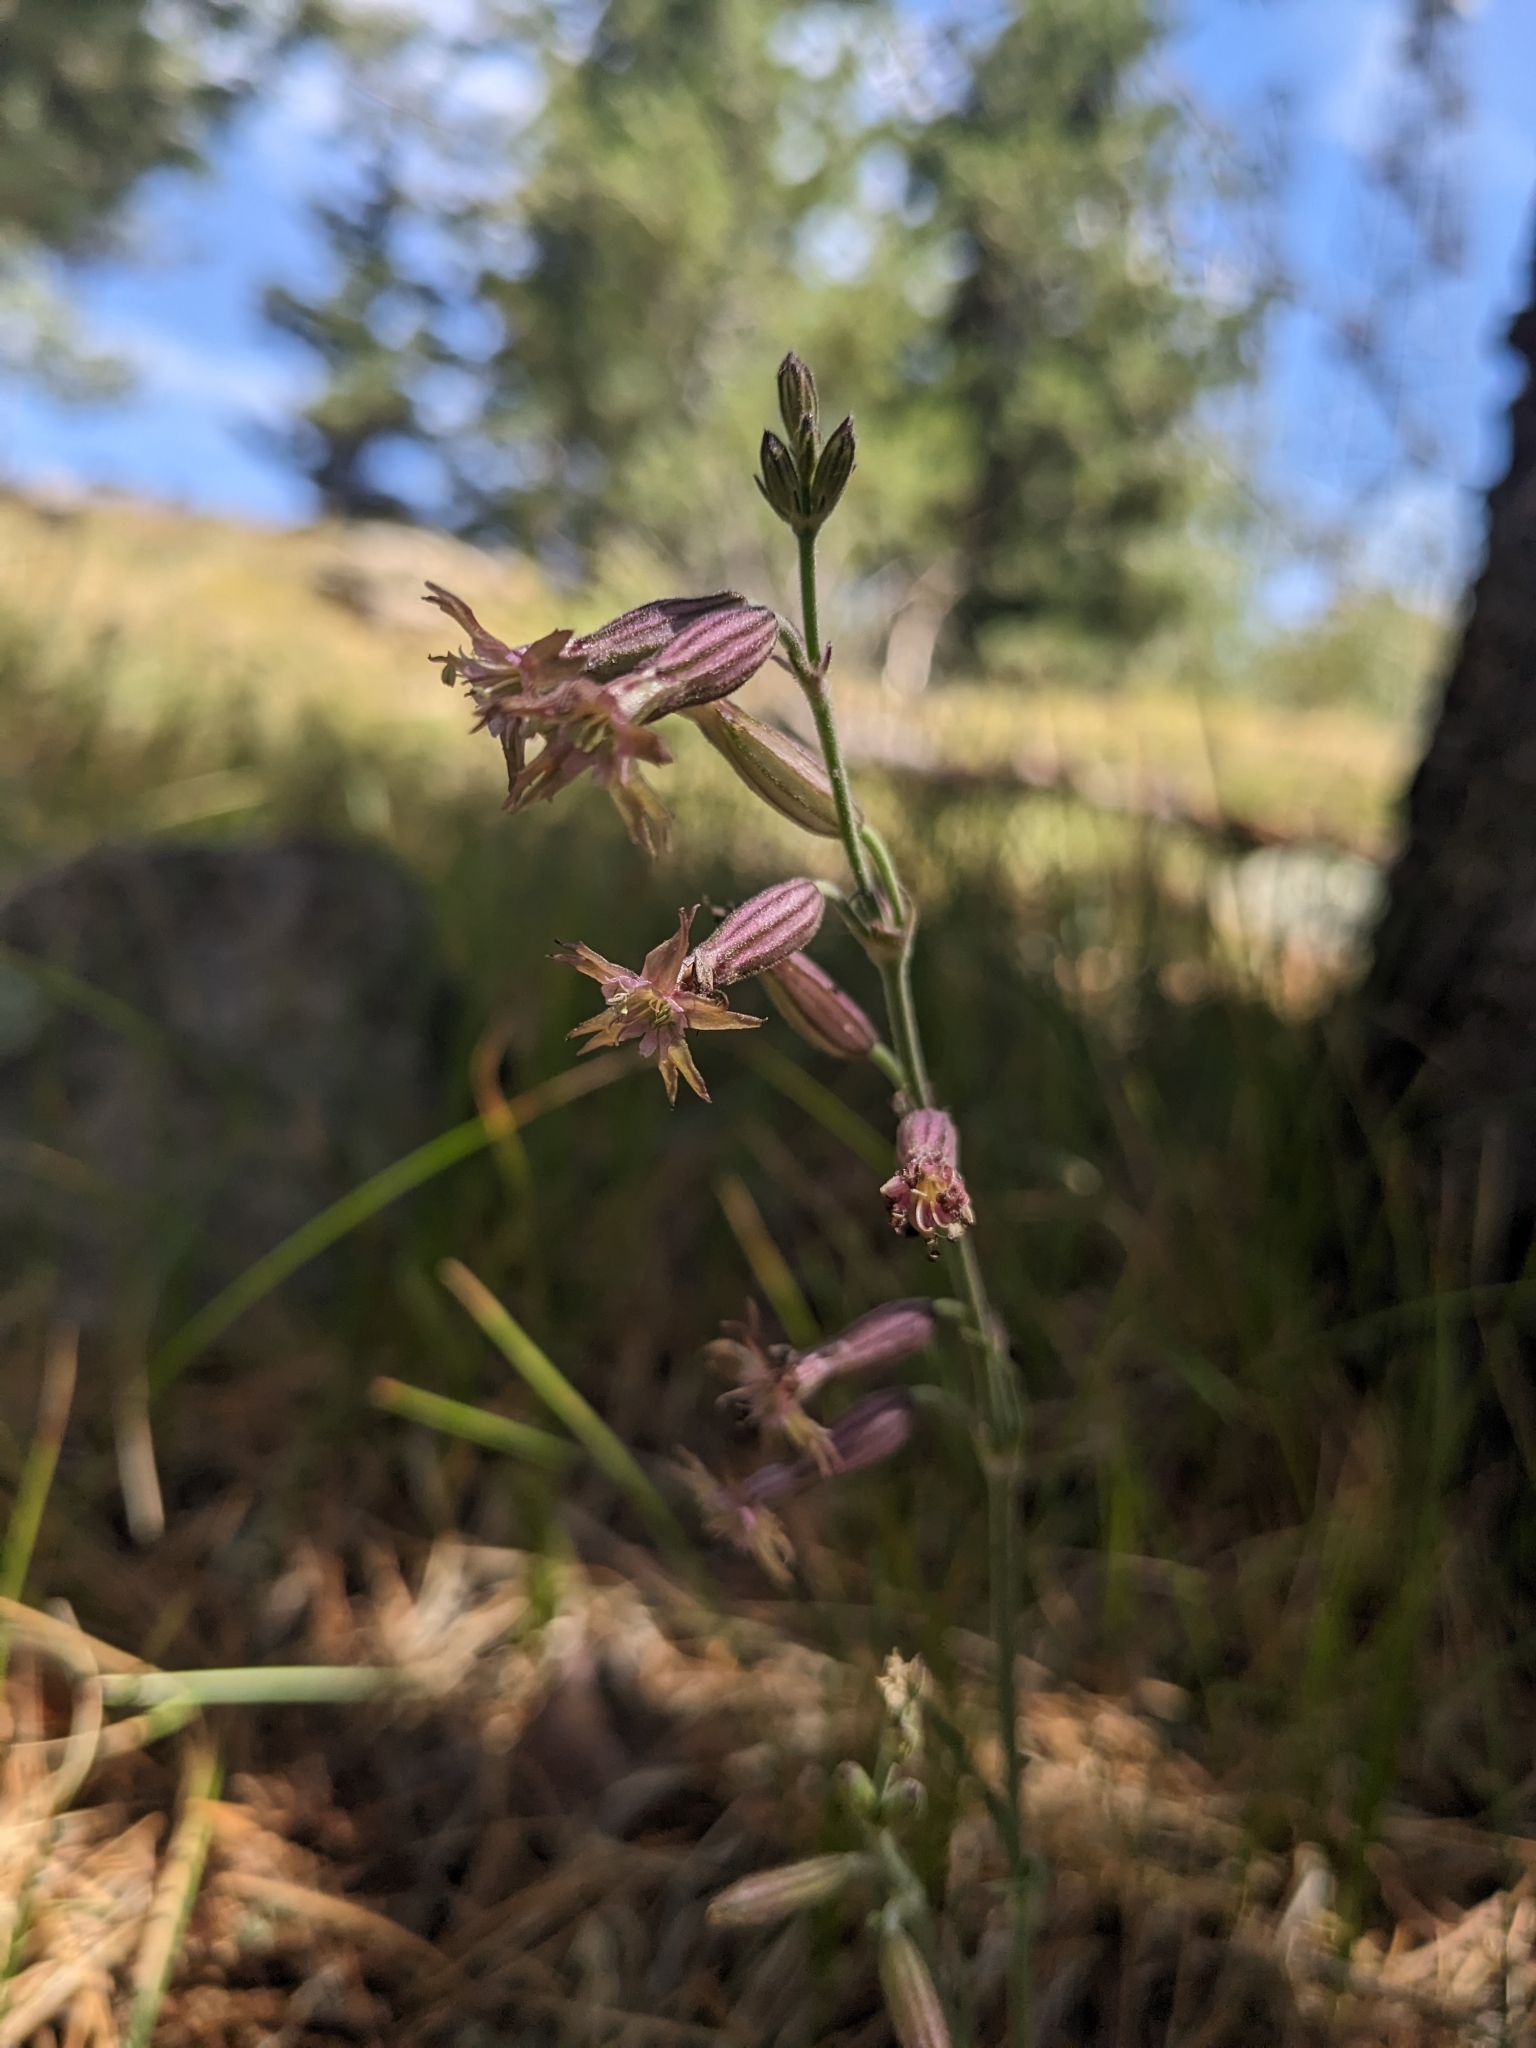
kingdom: Plantae
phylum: Tracheophyta
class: Magnoliopsida
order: Caryophyllales
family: Caryophyllaceae
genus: Silene
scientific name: Silene scouleri
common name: Scouler's campion
